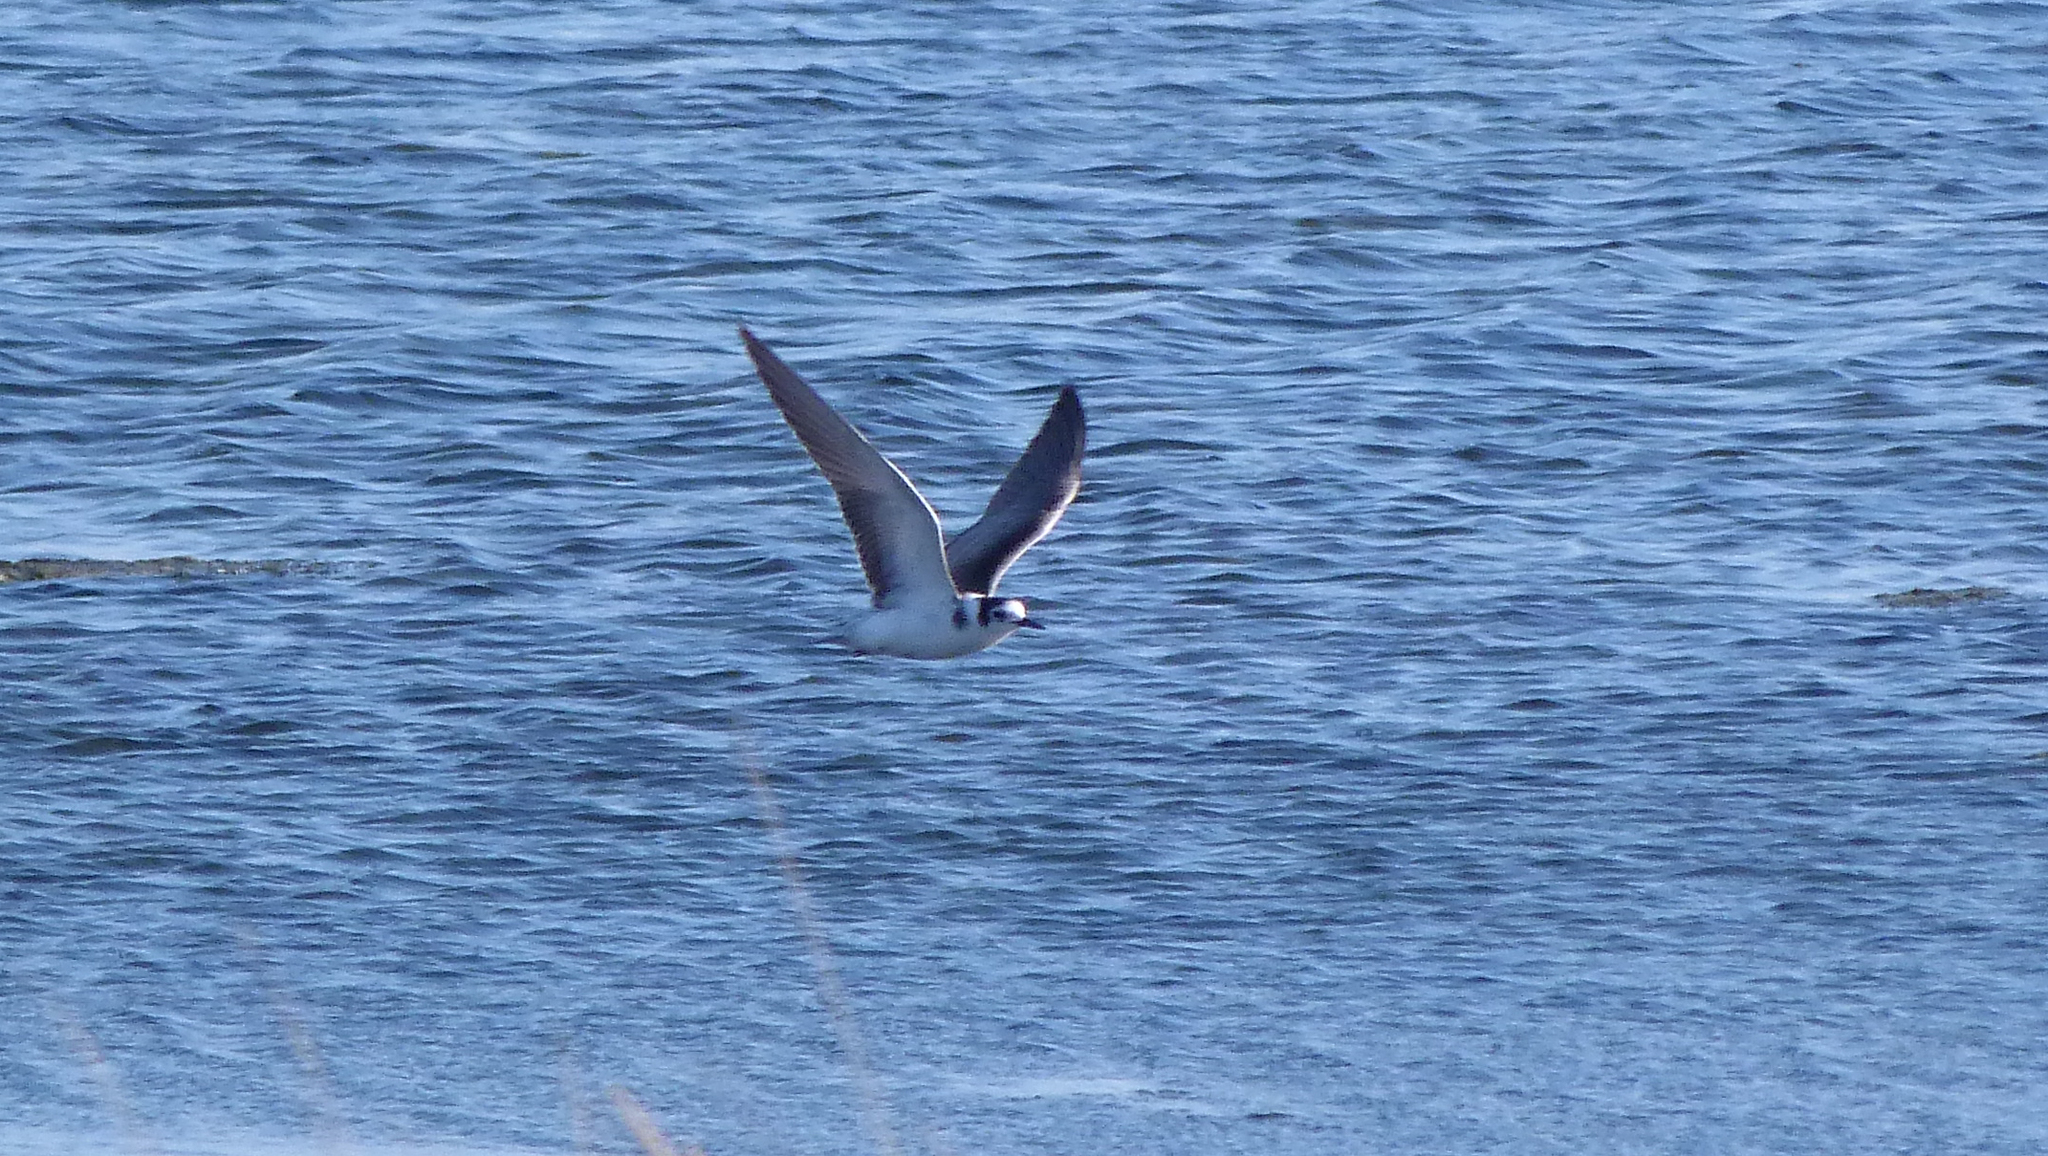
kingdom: Animalia
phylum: Chordata
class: Aves
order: Charadriiformes
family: Laridae
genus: Chlidonias
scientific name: Chlidonias niger
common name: Black tern
